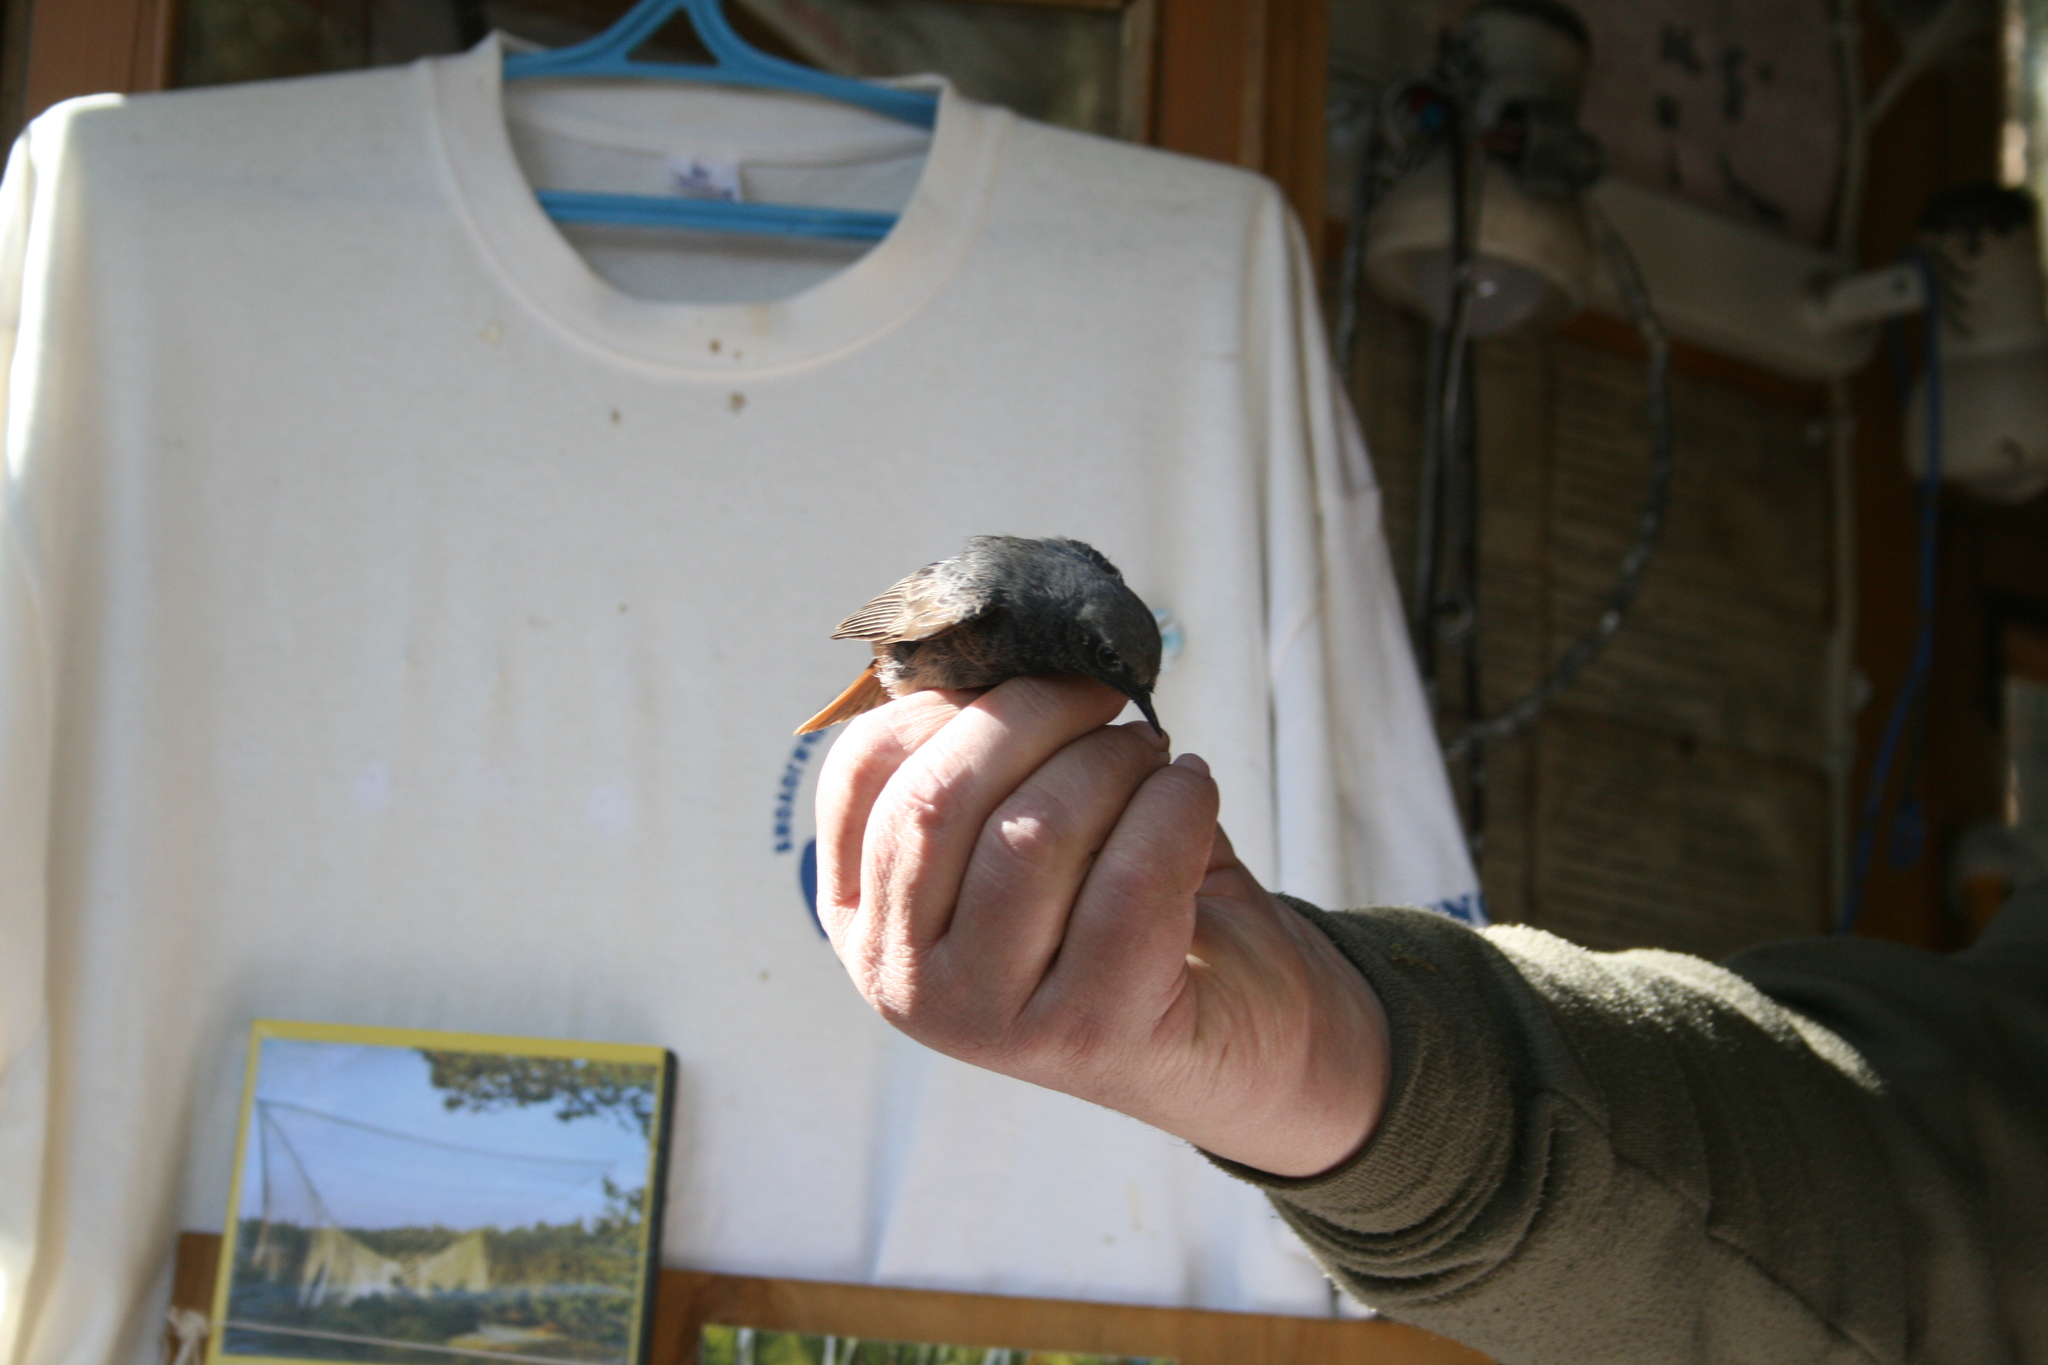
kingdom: Animalia
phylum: Chordata
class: Aves
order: Passeriformes
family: Muscicapidae
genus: Phoenicurus
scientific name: Phoenicurus ochruros
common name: Black redstart
